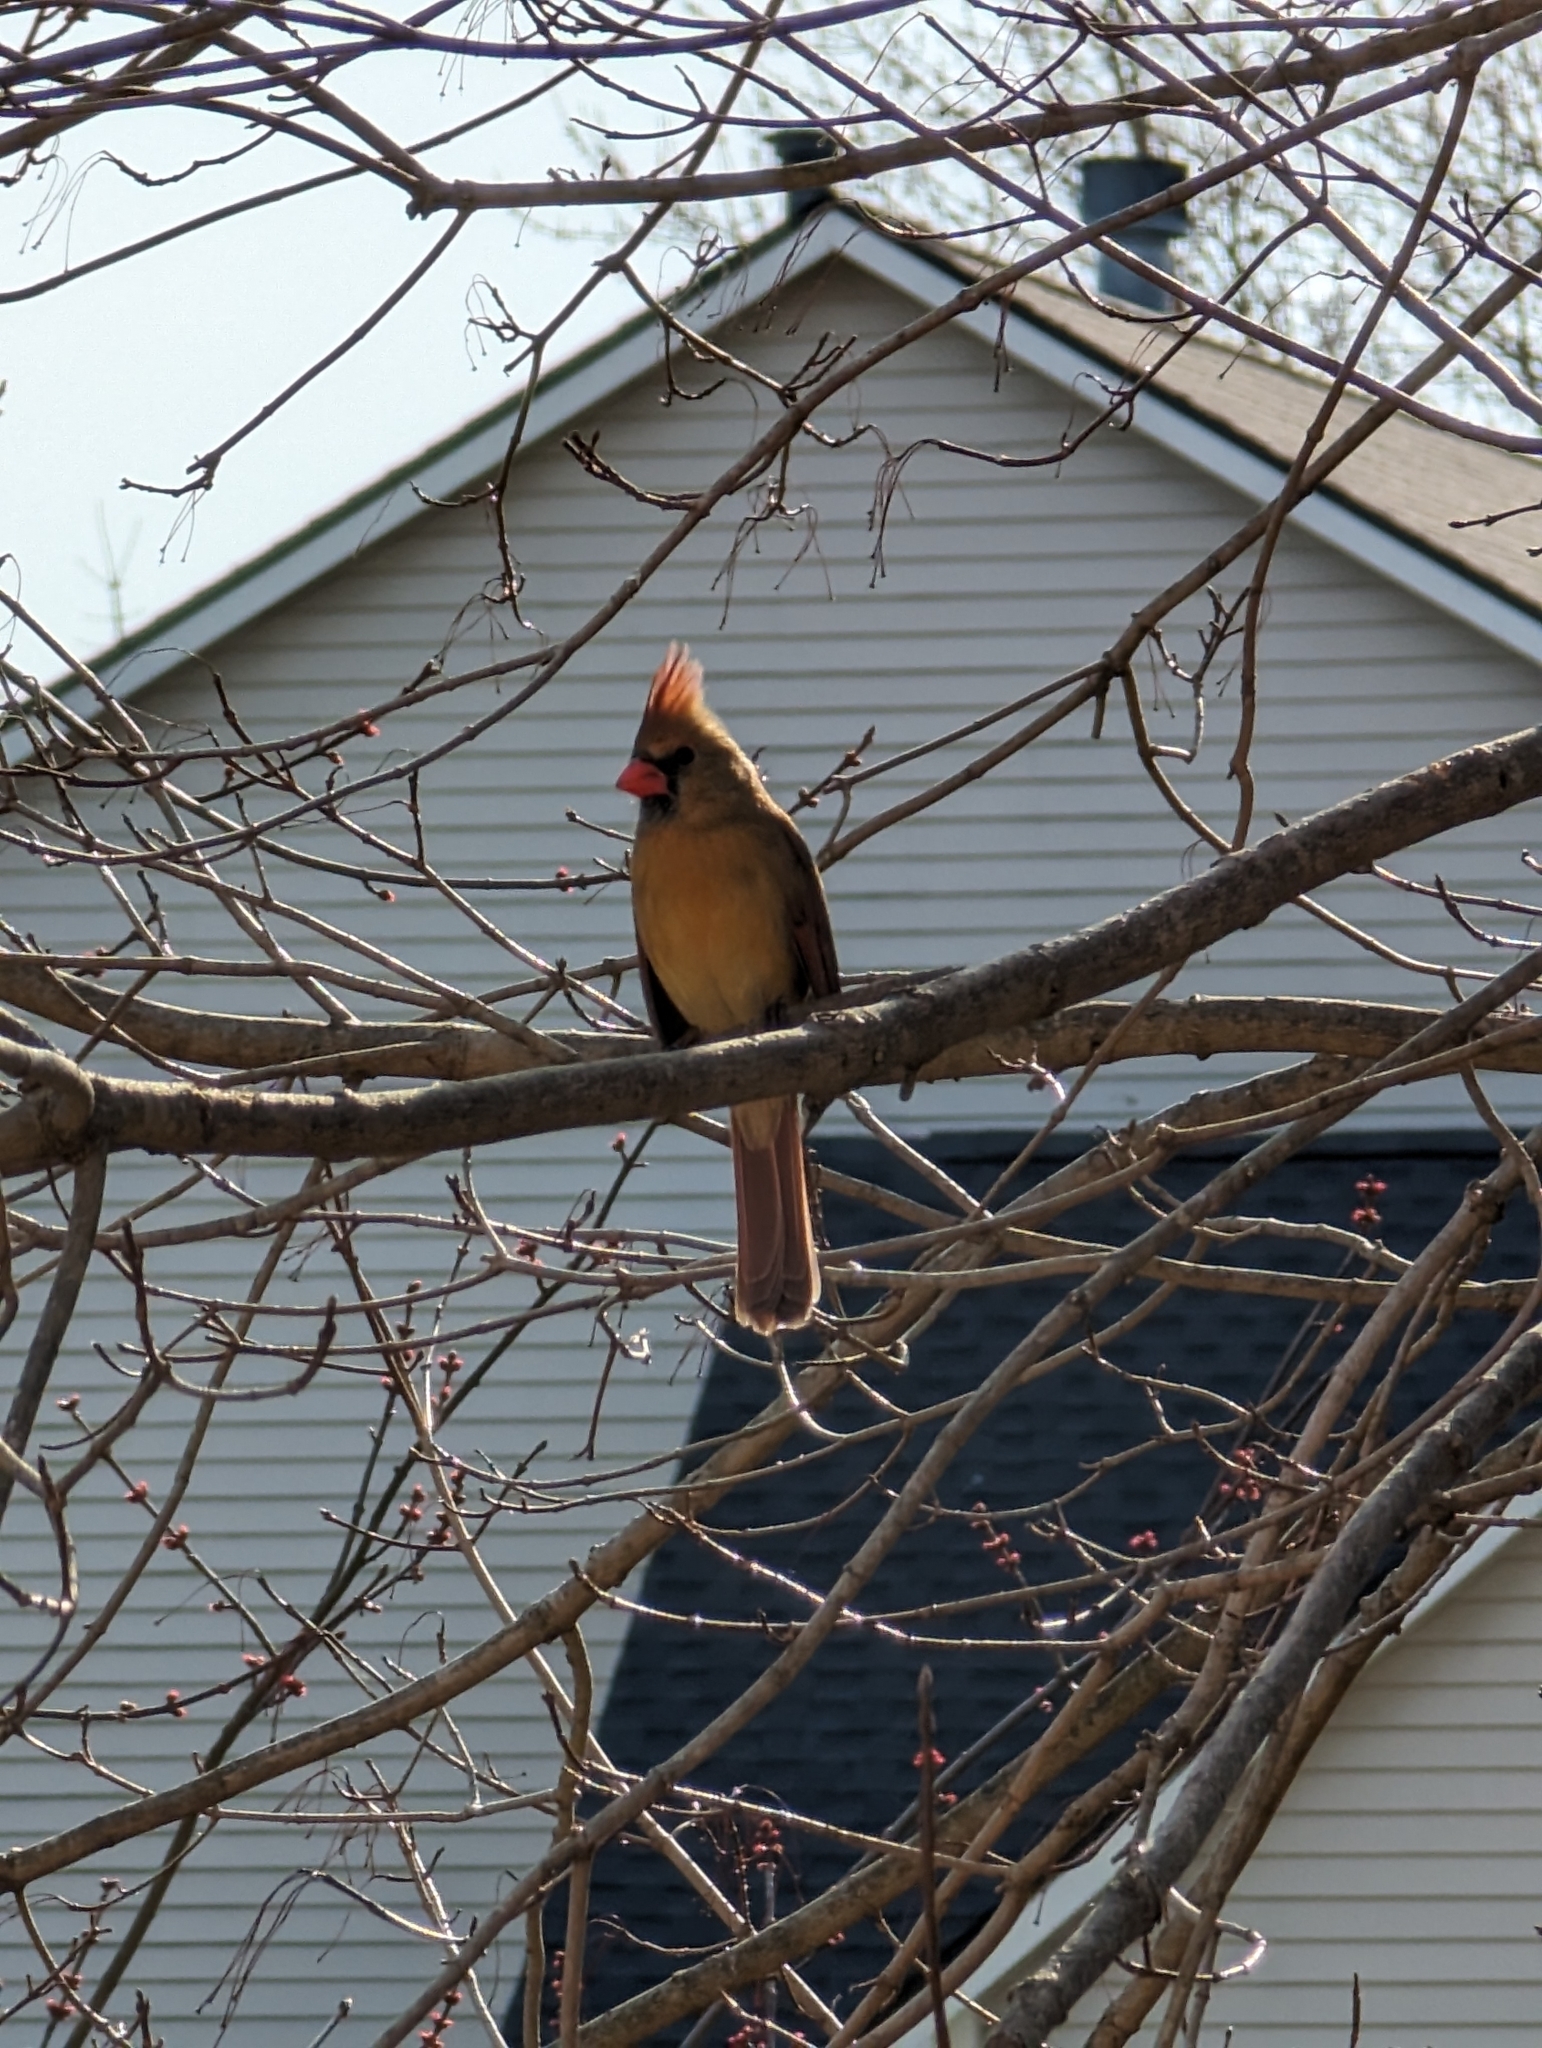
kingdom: Animalia
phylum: Chordata
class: Aves
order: Passeriformes
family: Cardinalidae
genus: Cardinalis
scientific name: Cardinalis cardinalis
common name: Northern cardinal
